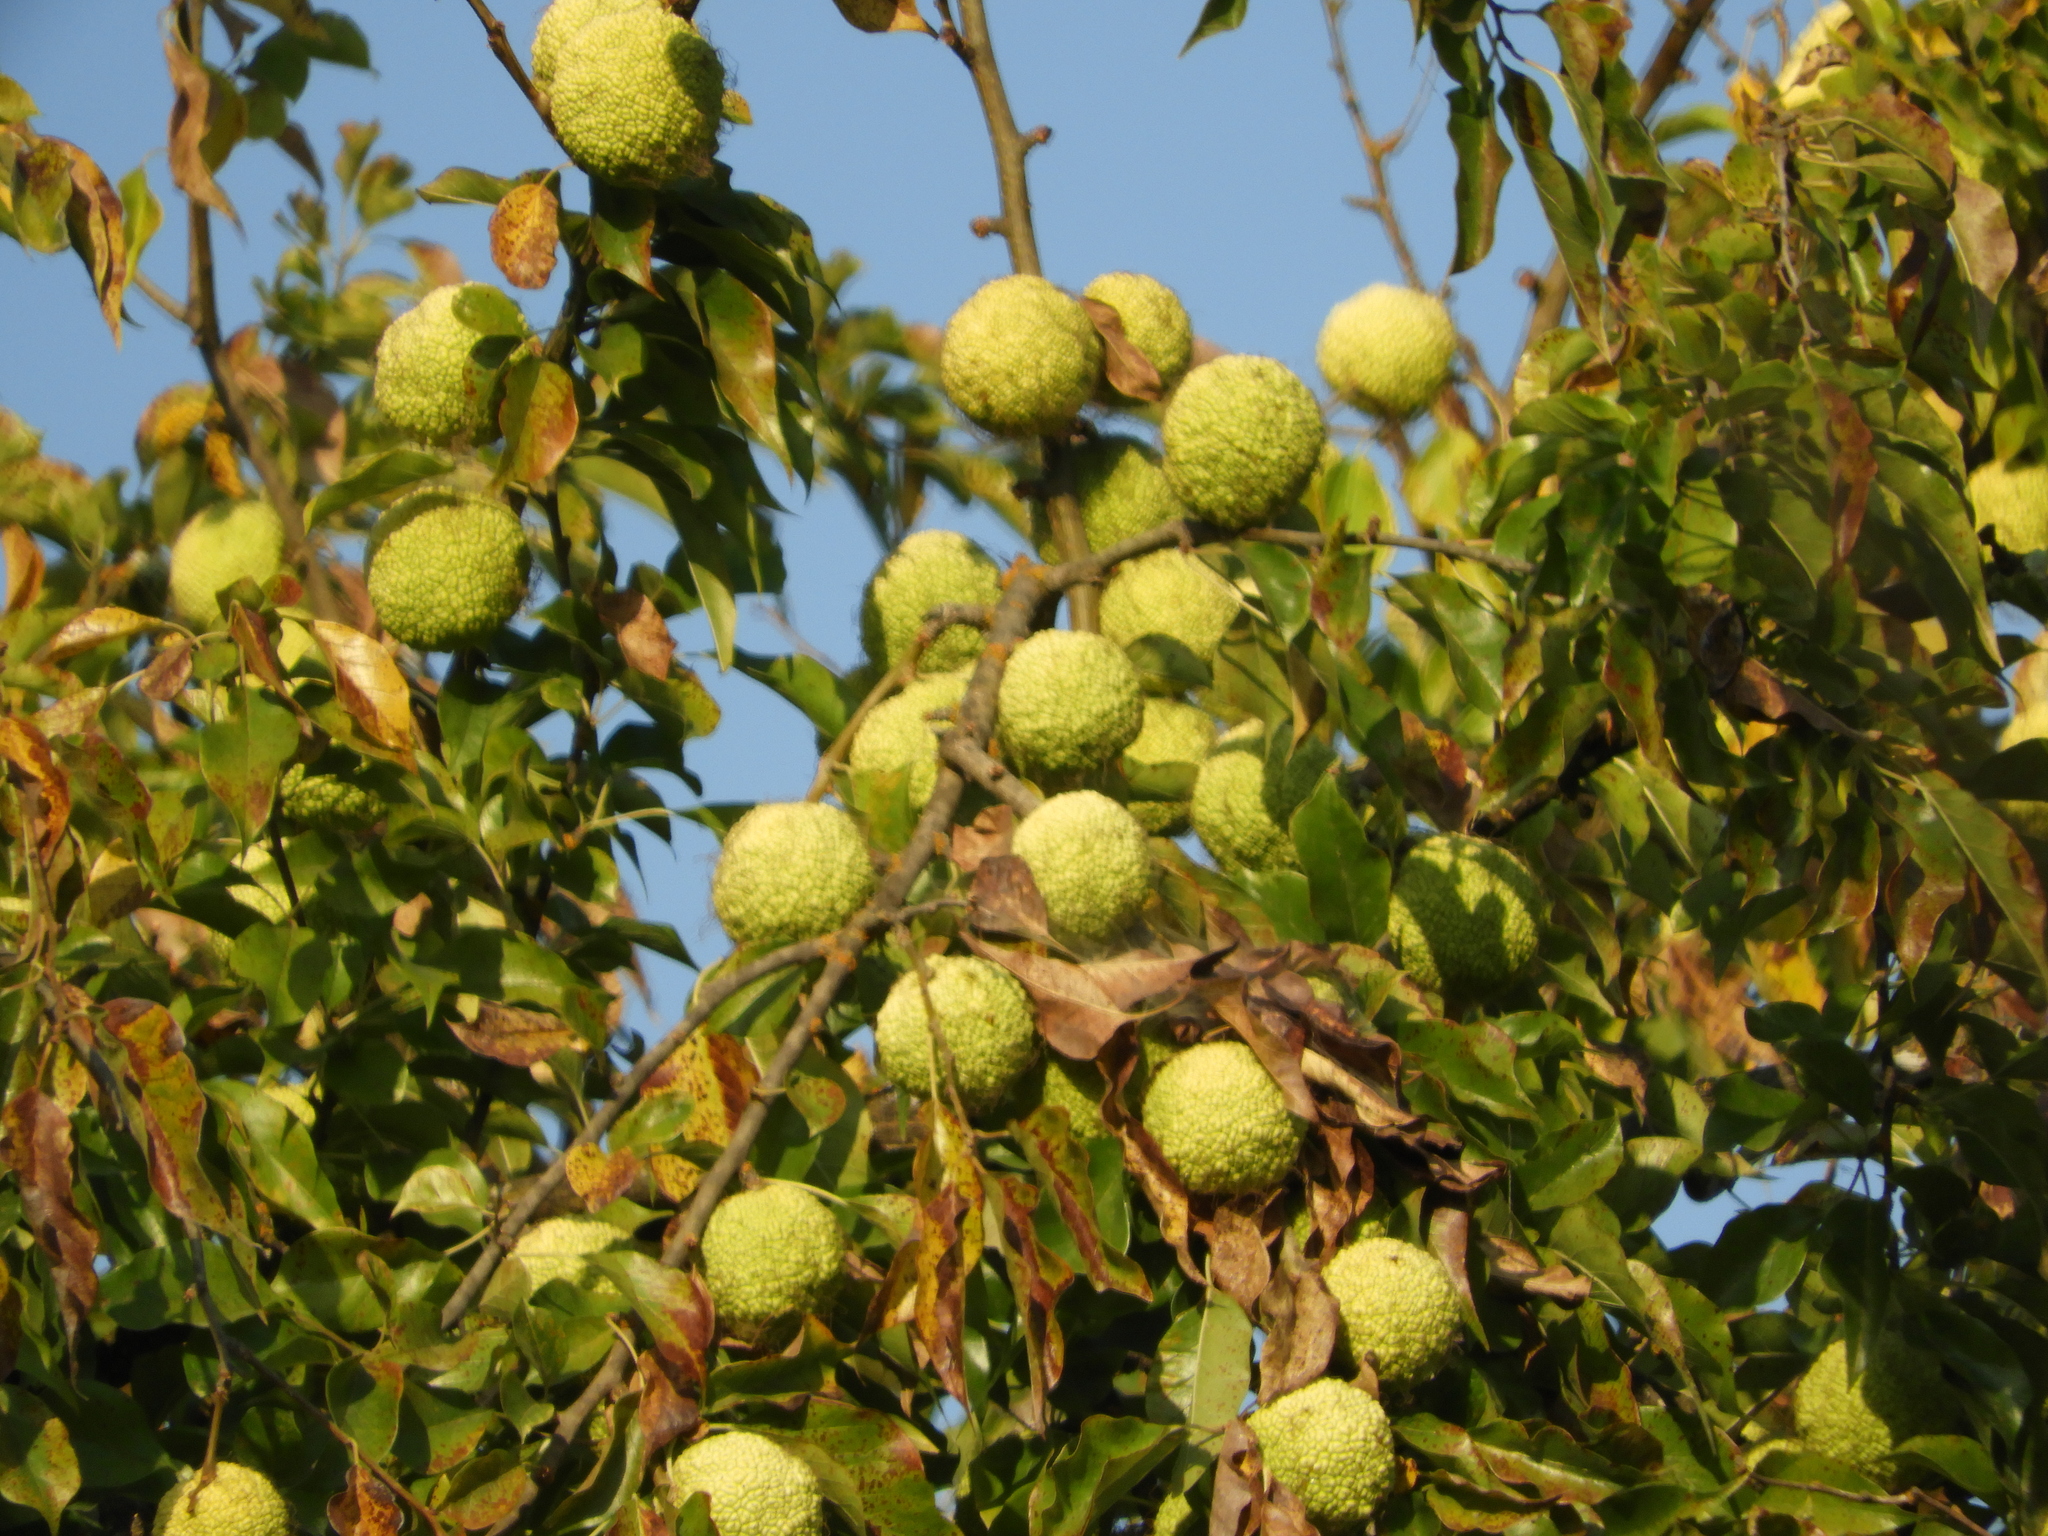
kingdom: Plantae
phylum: Tracheophyta
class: Magnoliopsida
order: Rosales
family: Moraceae
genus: Maclura
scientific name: Maclura pomifera
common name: Osage-orange
